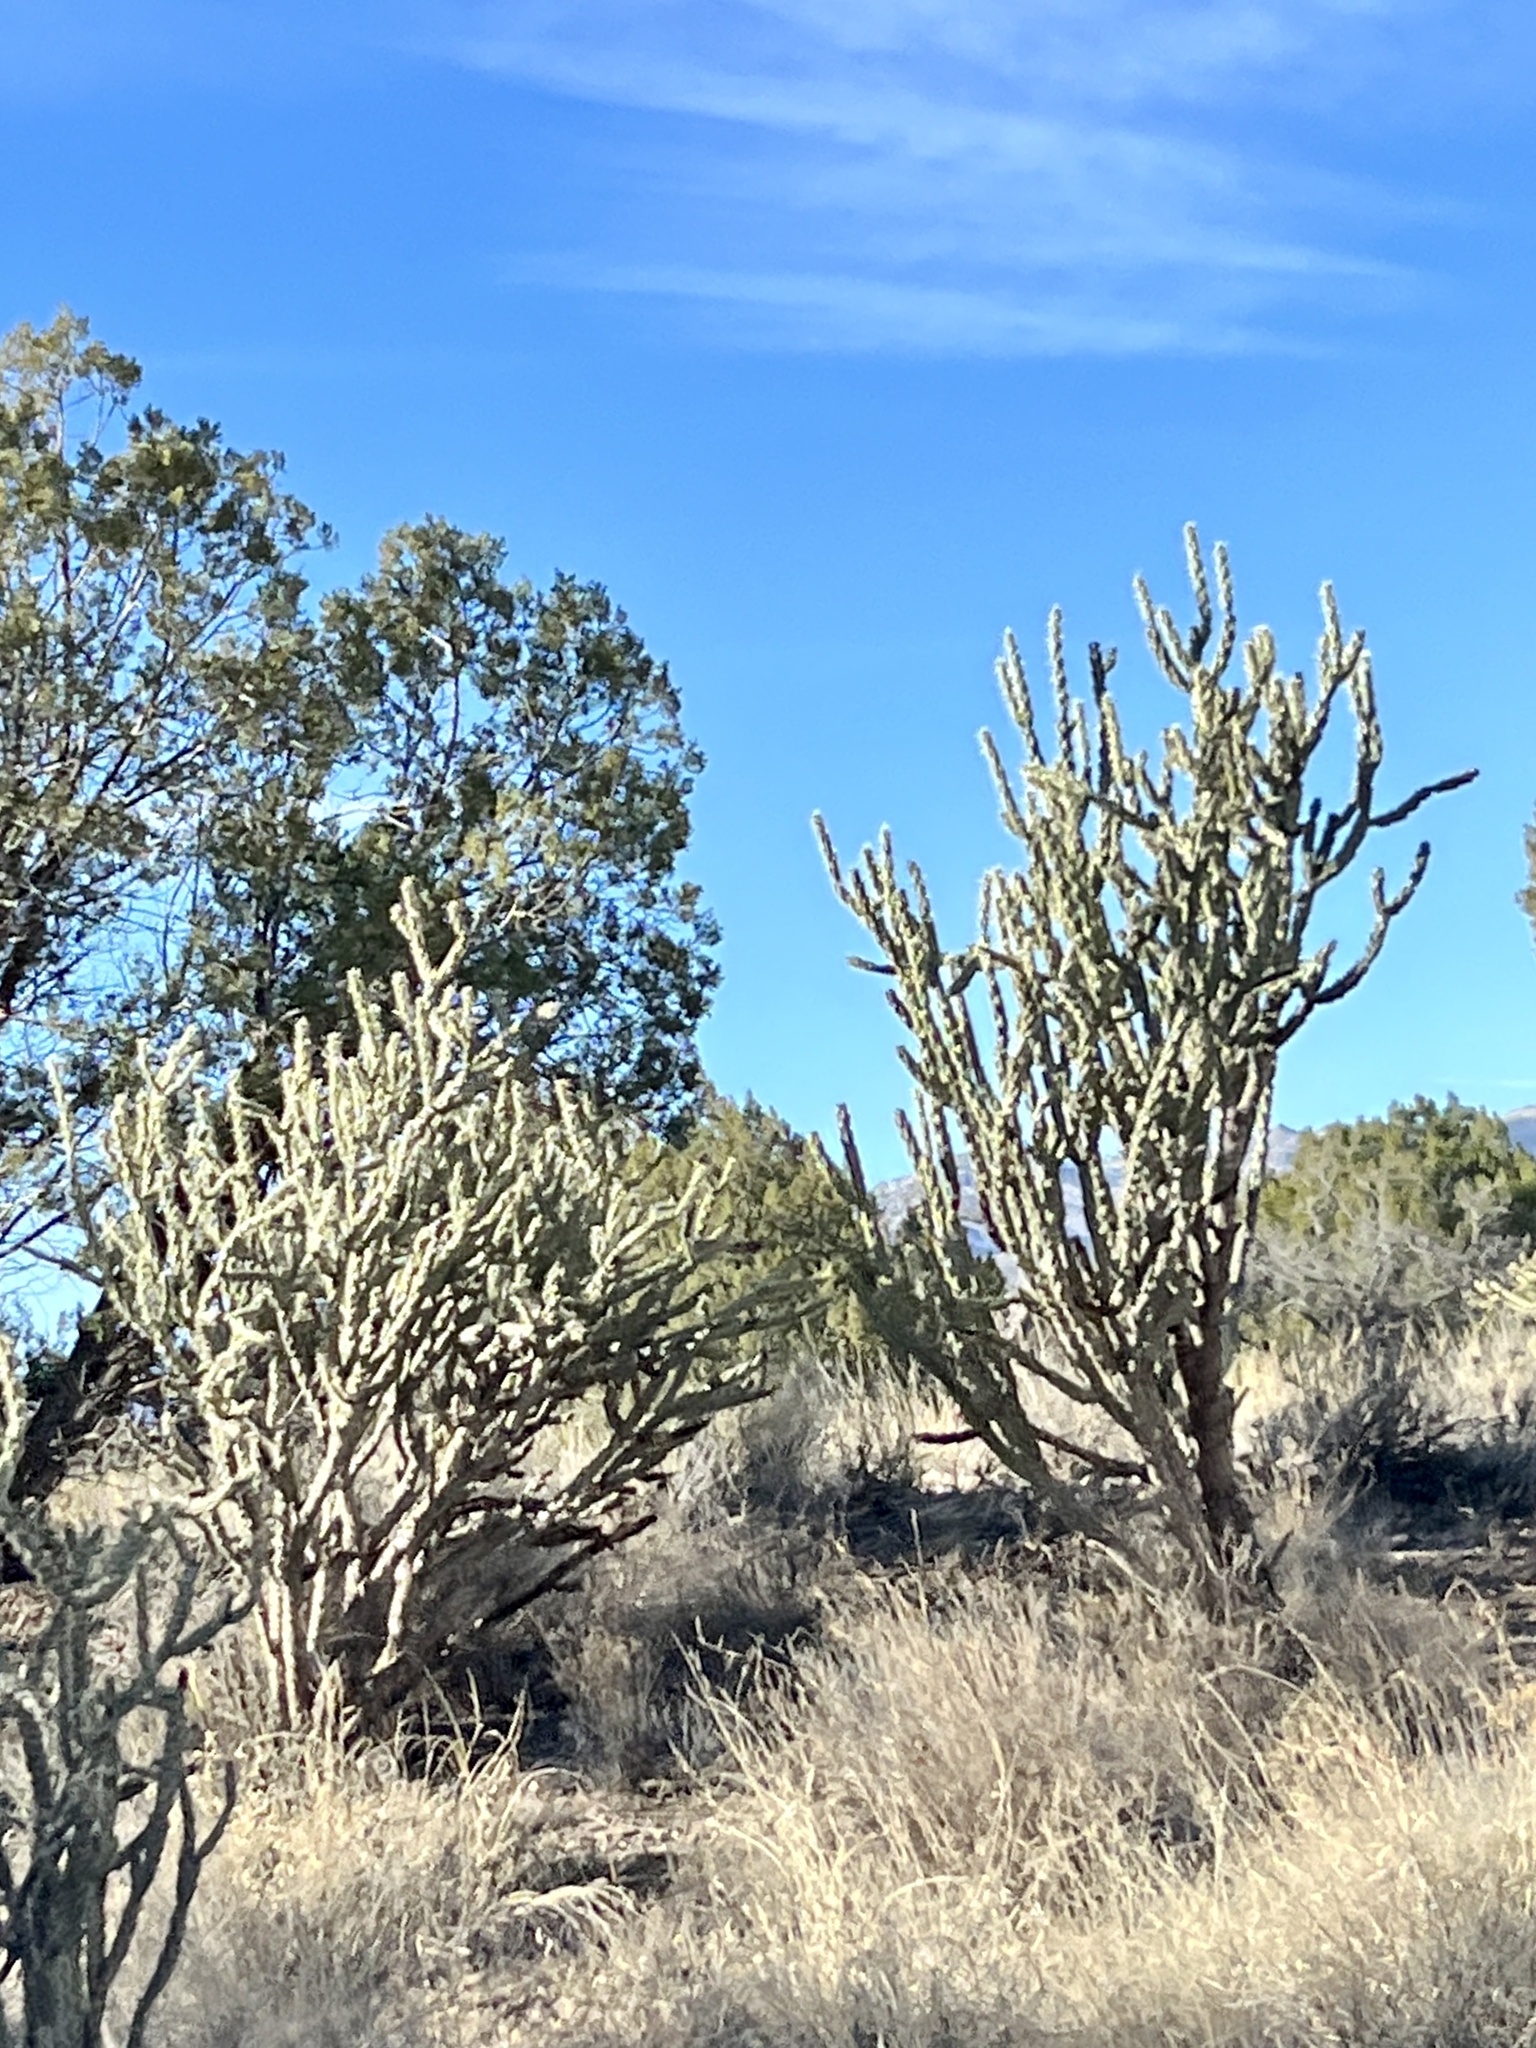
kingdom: Plantae
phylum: Tracheophyta
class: Magnoliopsida
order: Caryophyllales
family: Cactaceae
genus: Cylindropuntia
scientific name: Cylindropuntia acanthocarpa
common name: Buckhorn cholla
